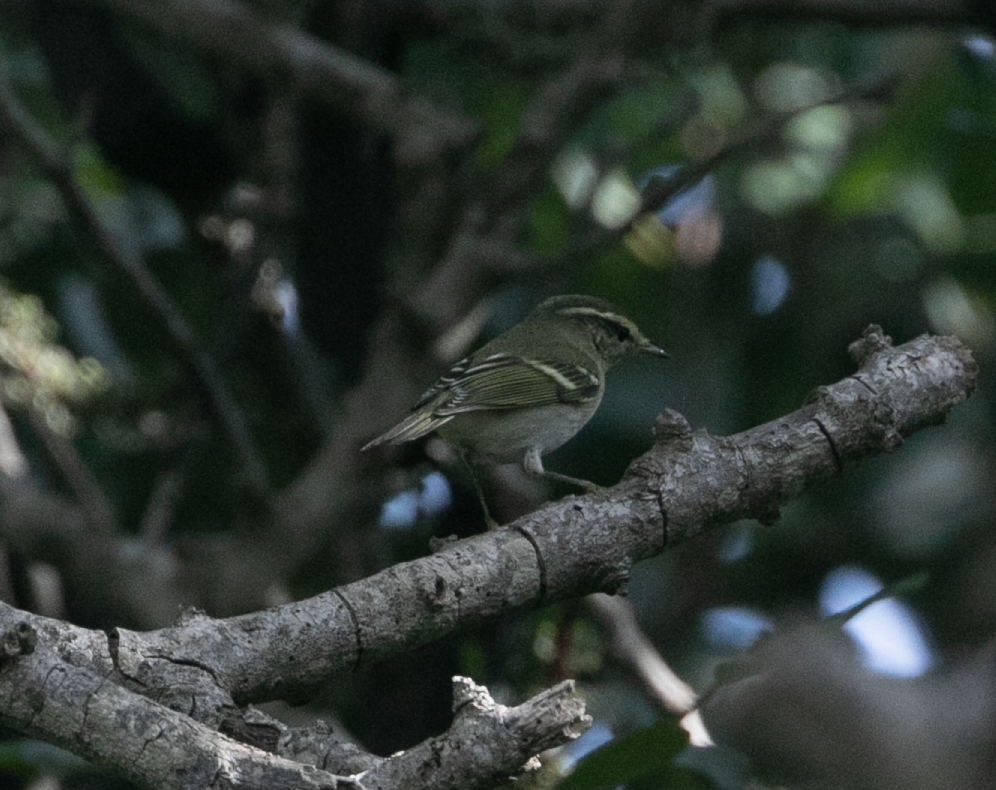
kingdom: Animalia
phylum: Chordata
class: Aves
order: Passeriformes
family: Phylloscopidae
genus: Phylloscopus
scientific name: Phylloscopus inornatus
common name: Yellow-browed warbler
